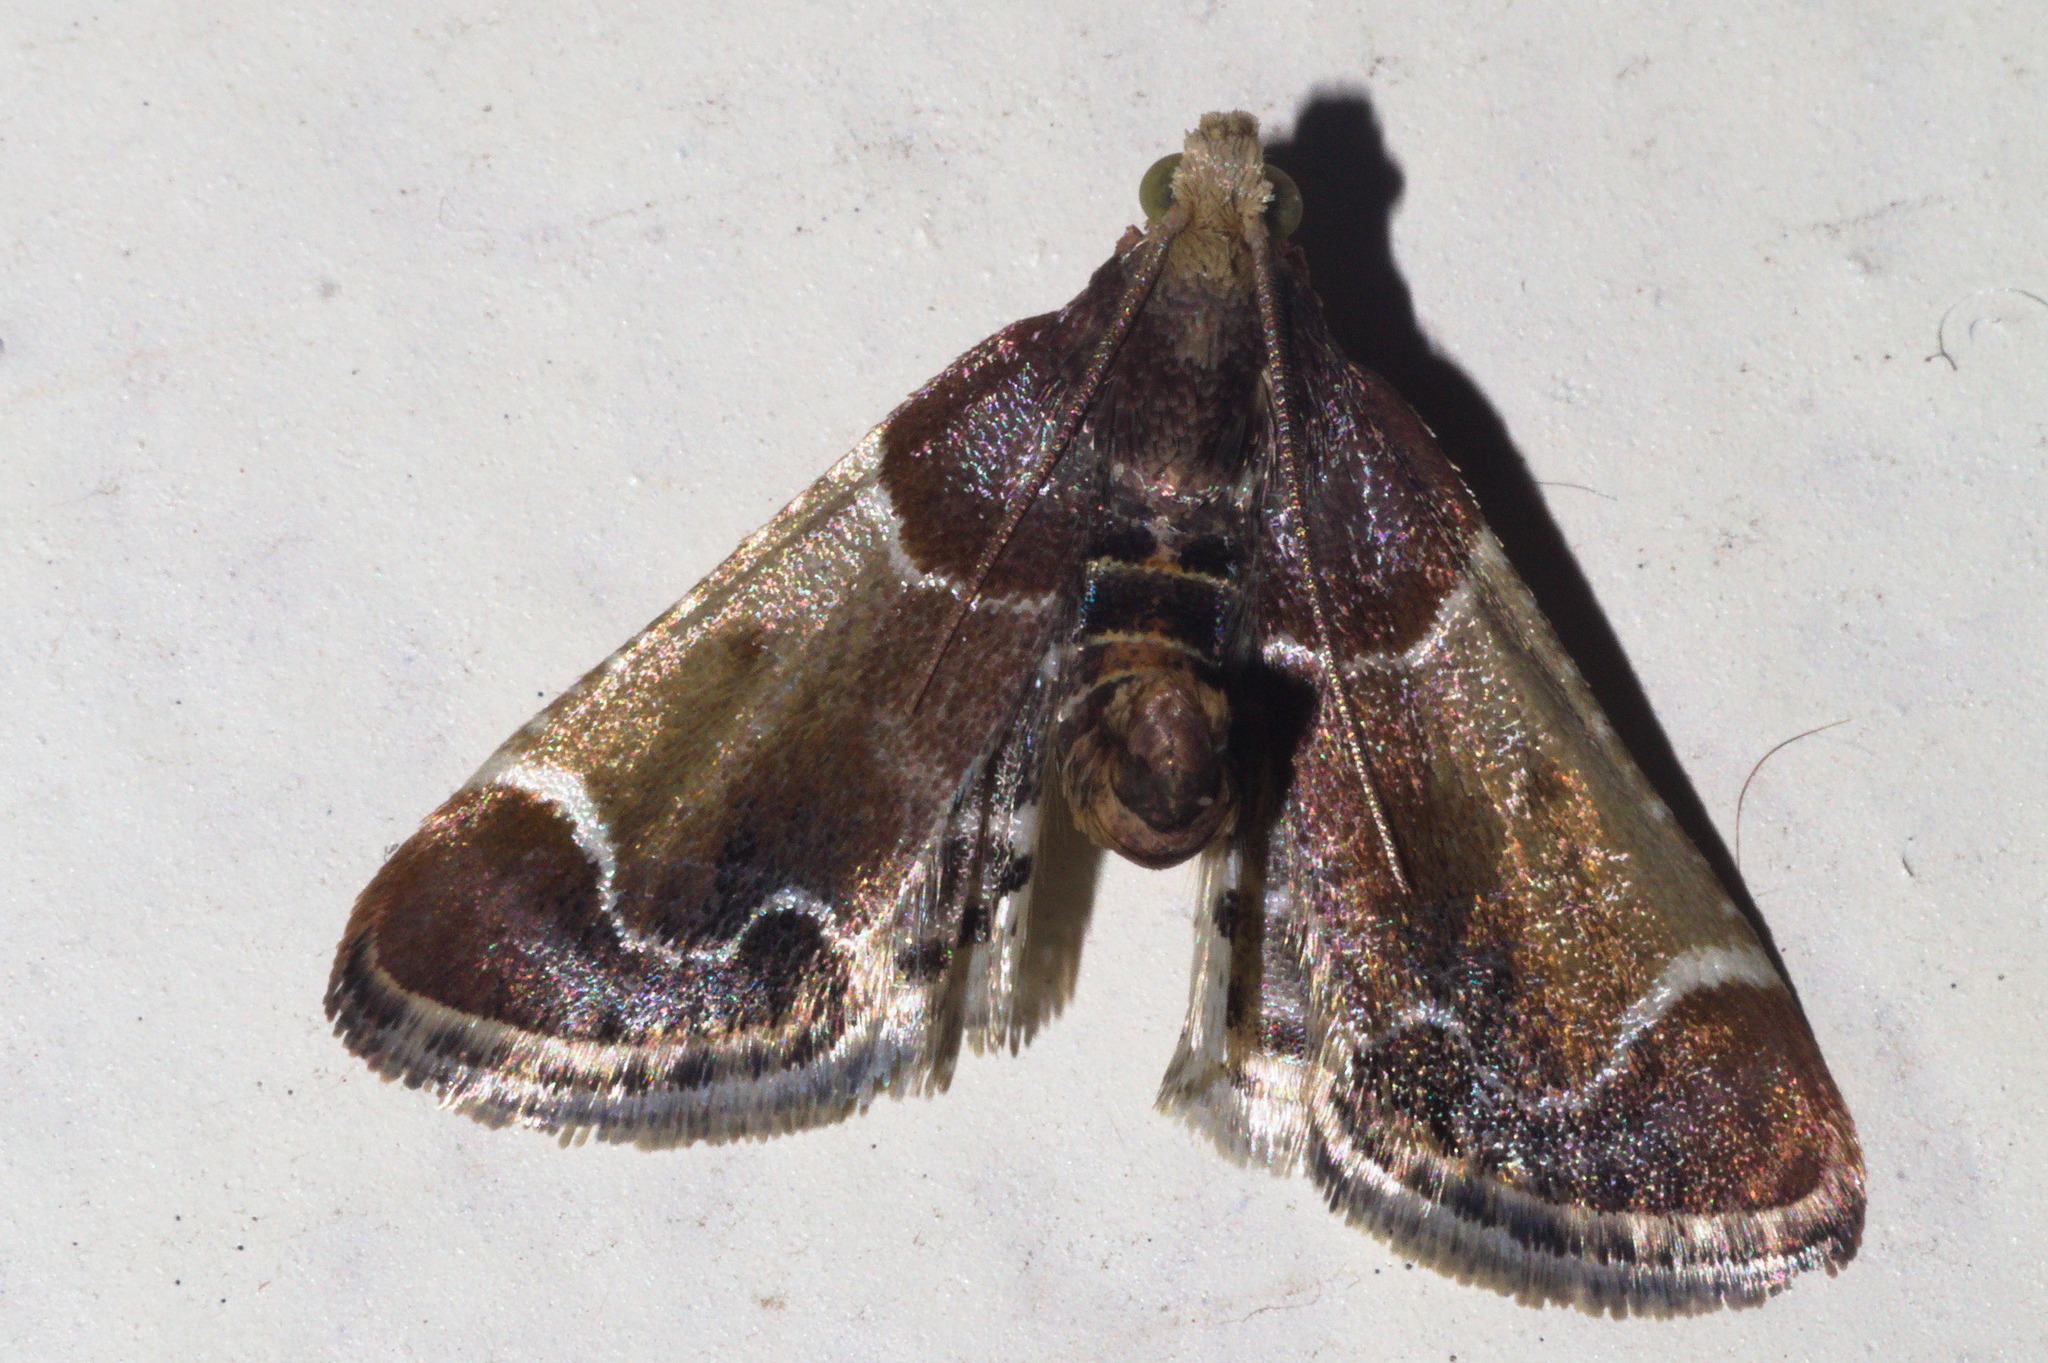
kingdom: Animalia
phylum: Arthropoda
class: Insecta
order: Lepidoptera
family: Pyralidae
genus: Pyralis
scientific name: Pyralis farinalis
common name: Meal moth
